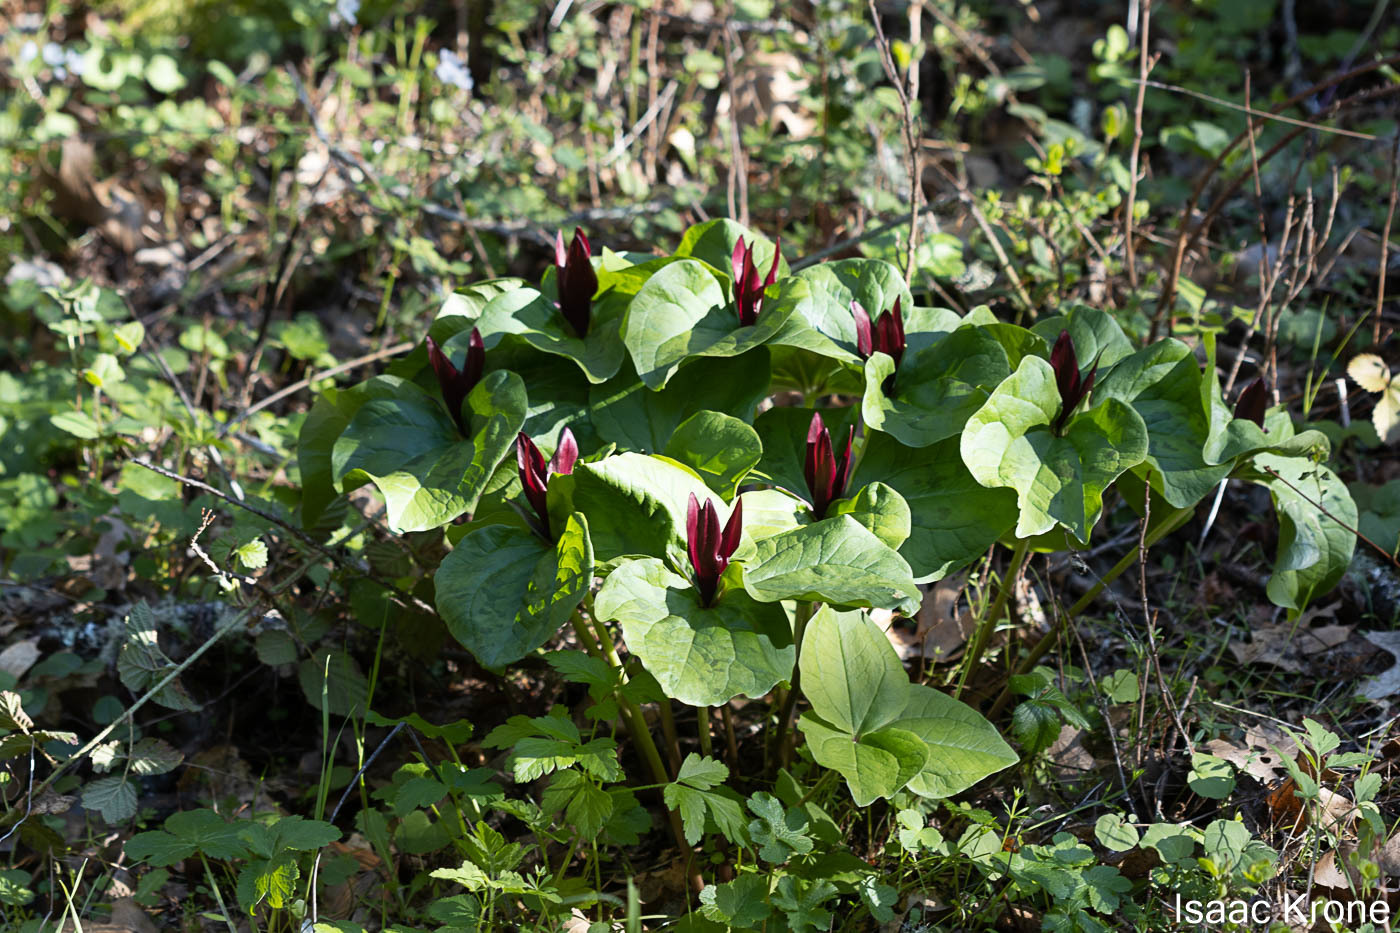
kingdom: Plantae
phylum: Tracheophyta
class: Liliopsida
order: Liliales
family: Melanthiaceae
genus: Trillium
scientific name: Trillium chloropetalum
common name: Giant trillium
